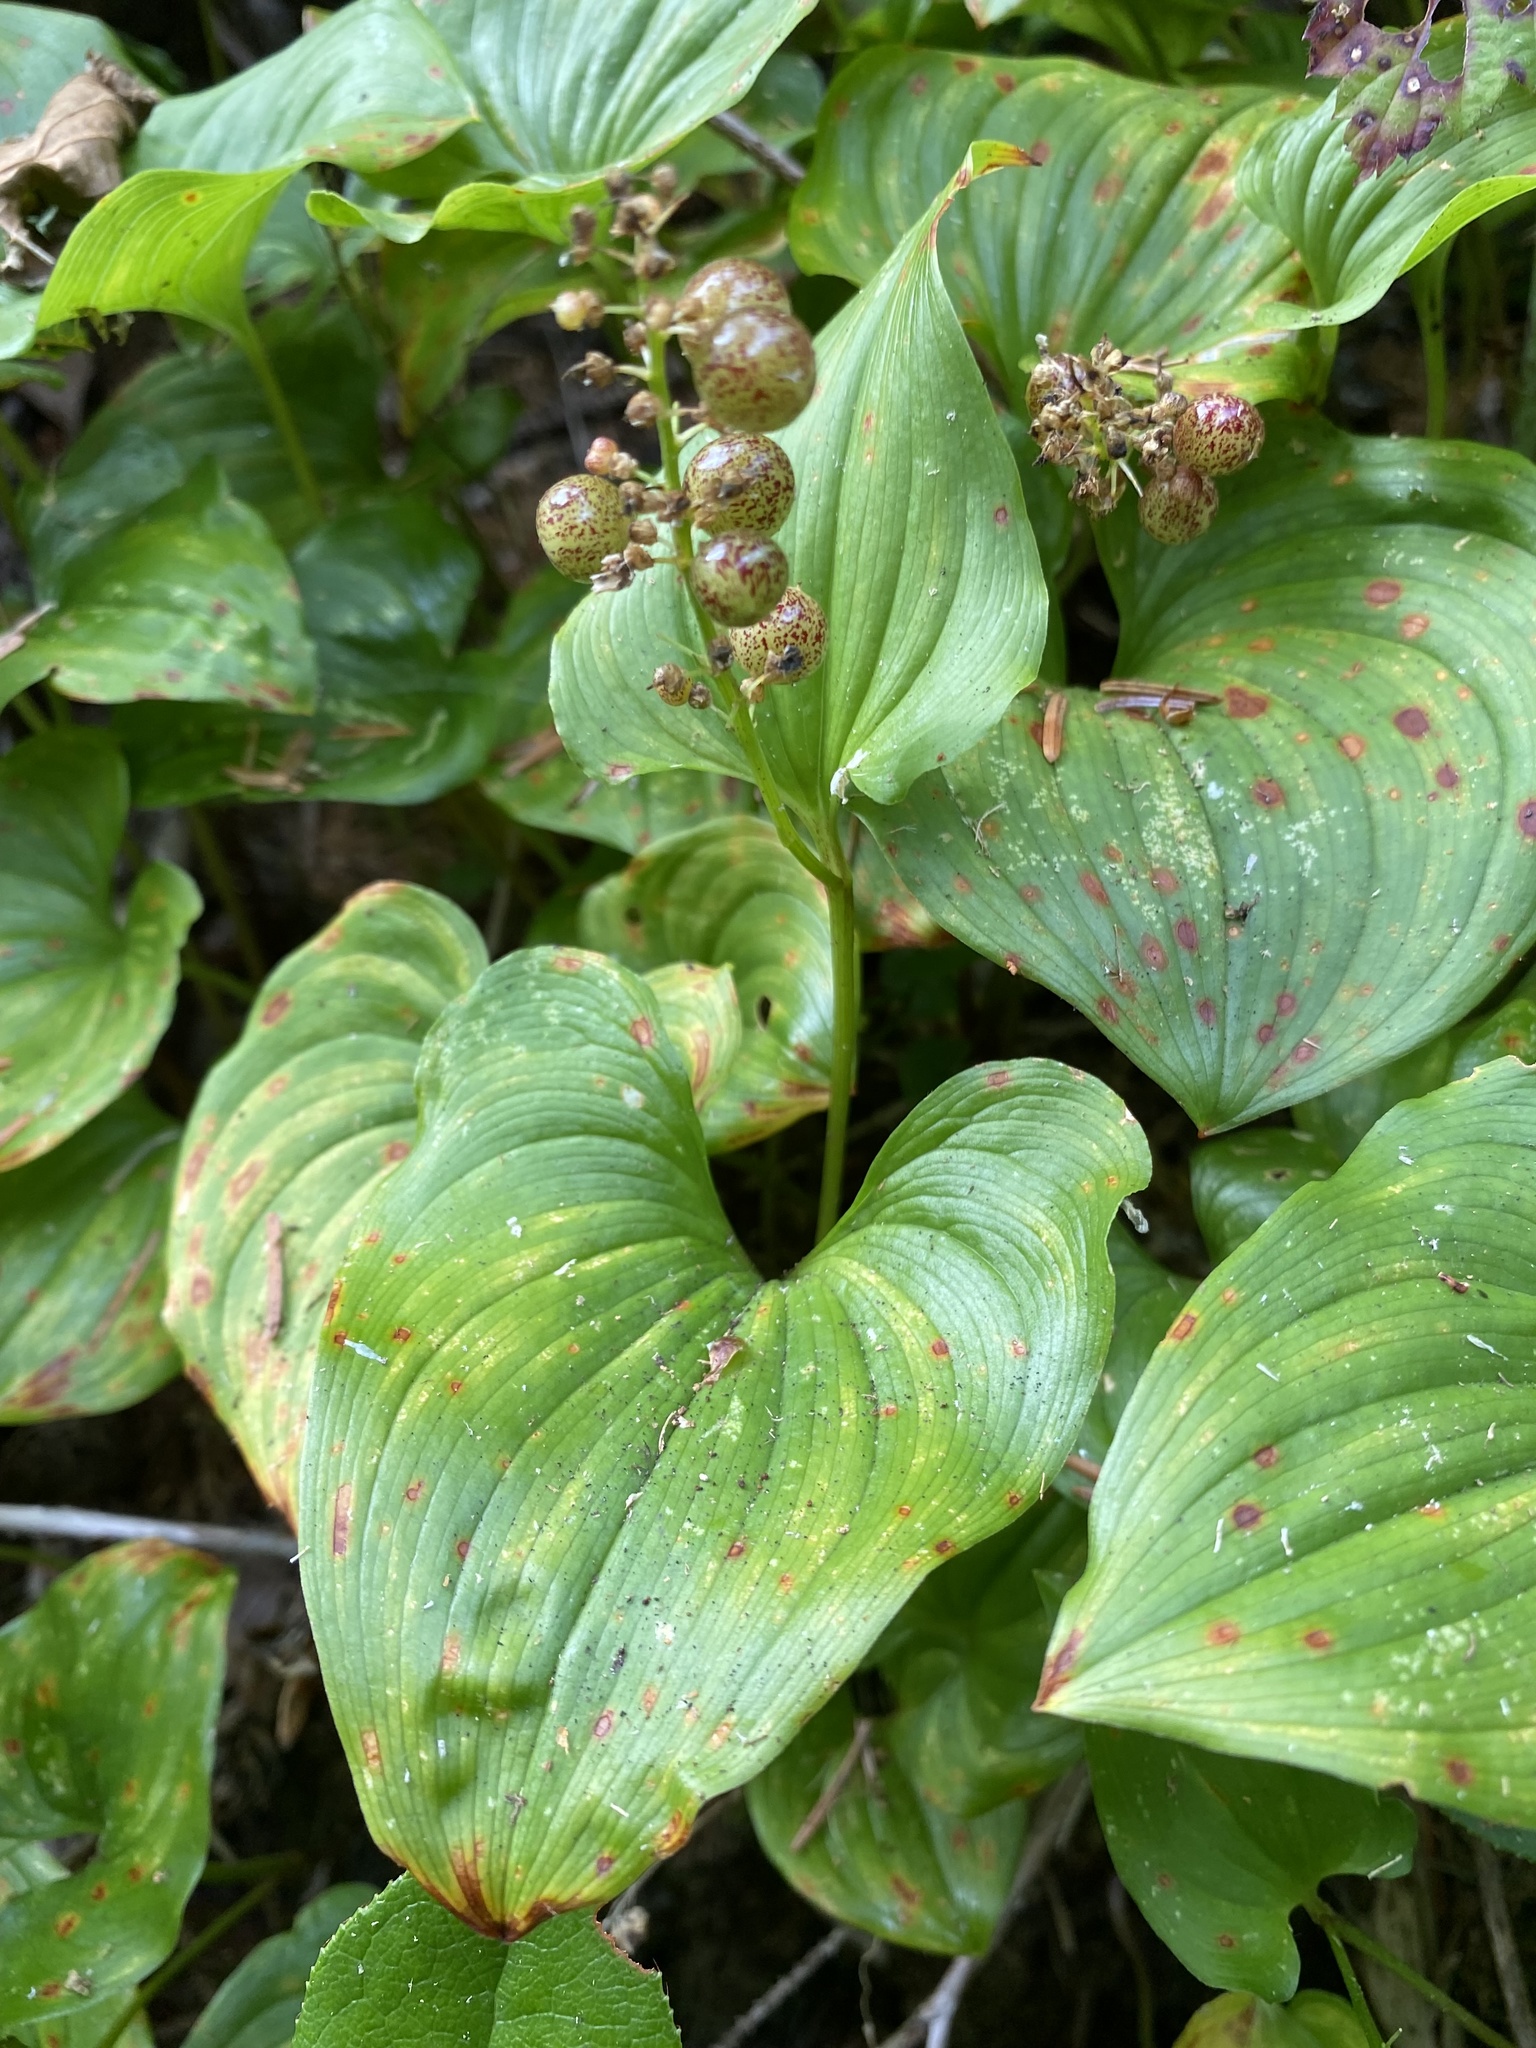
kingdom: Plantae
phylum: Tracheophyta
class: Liliopsida
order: Asparagales
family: Asparagaceae
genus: Maianthemum
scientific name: Maianthemum dilatatum
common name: False lily-of-the-valley
